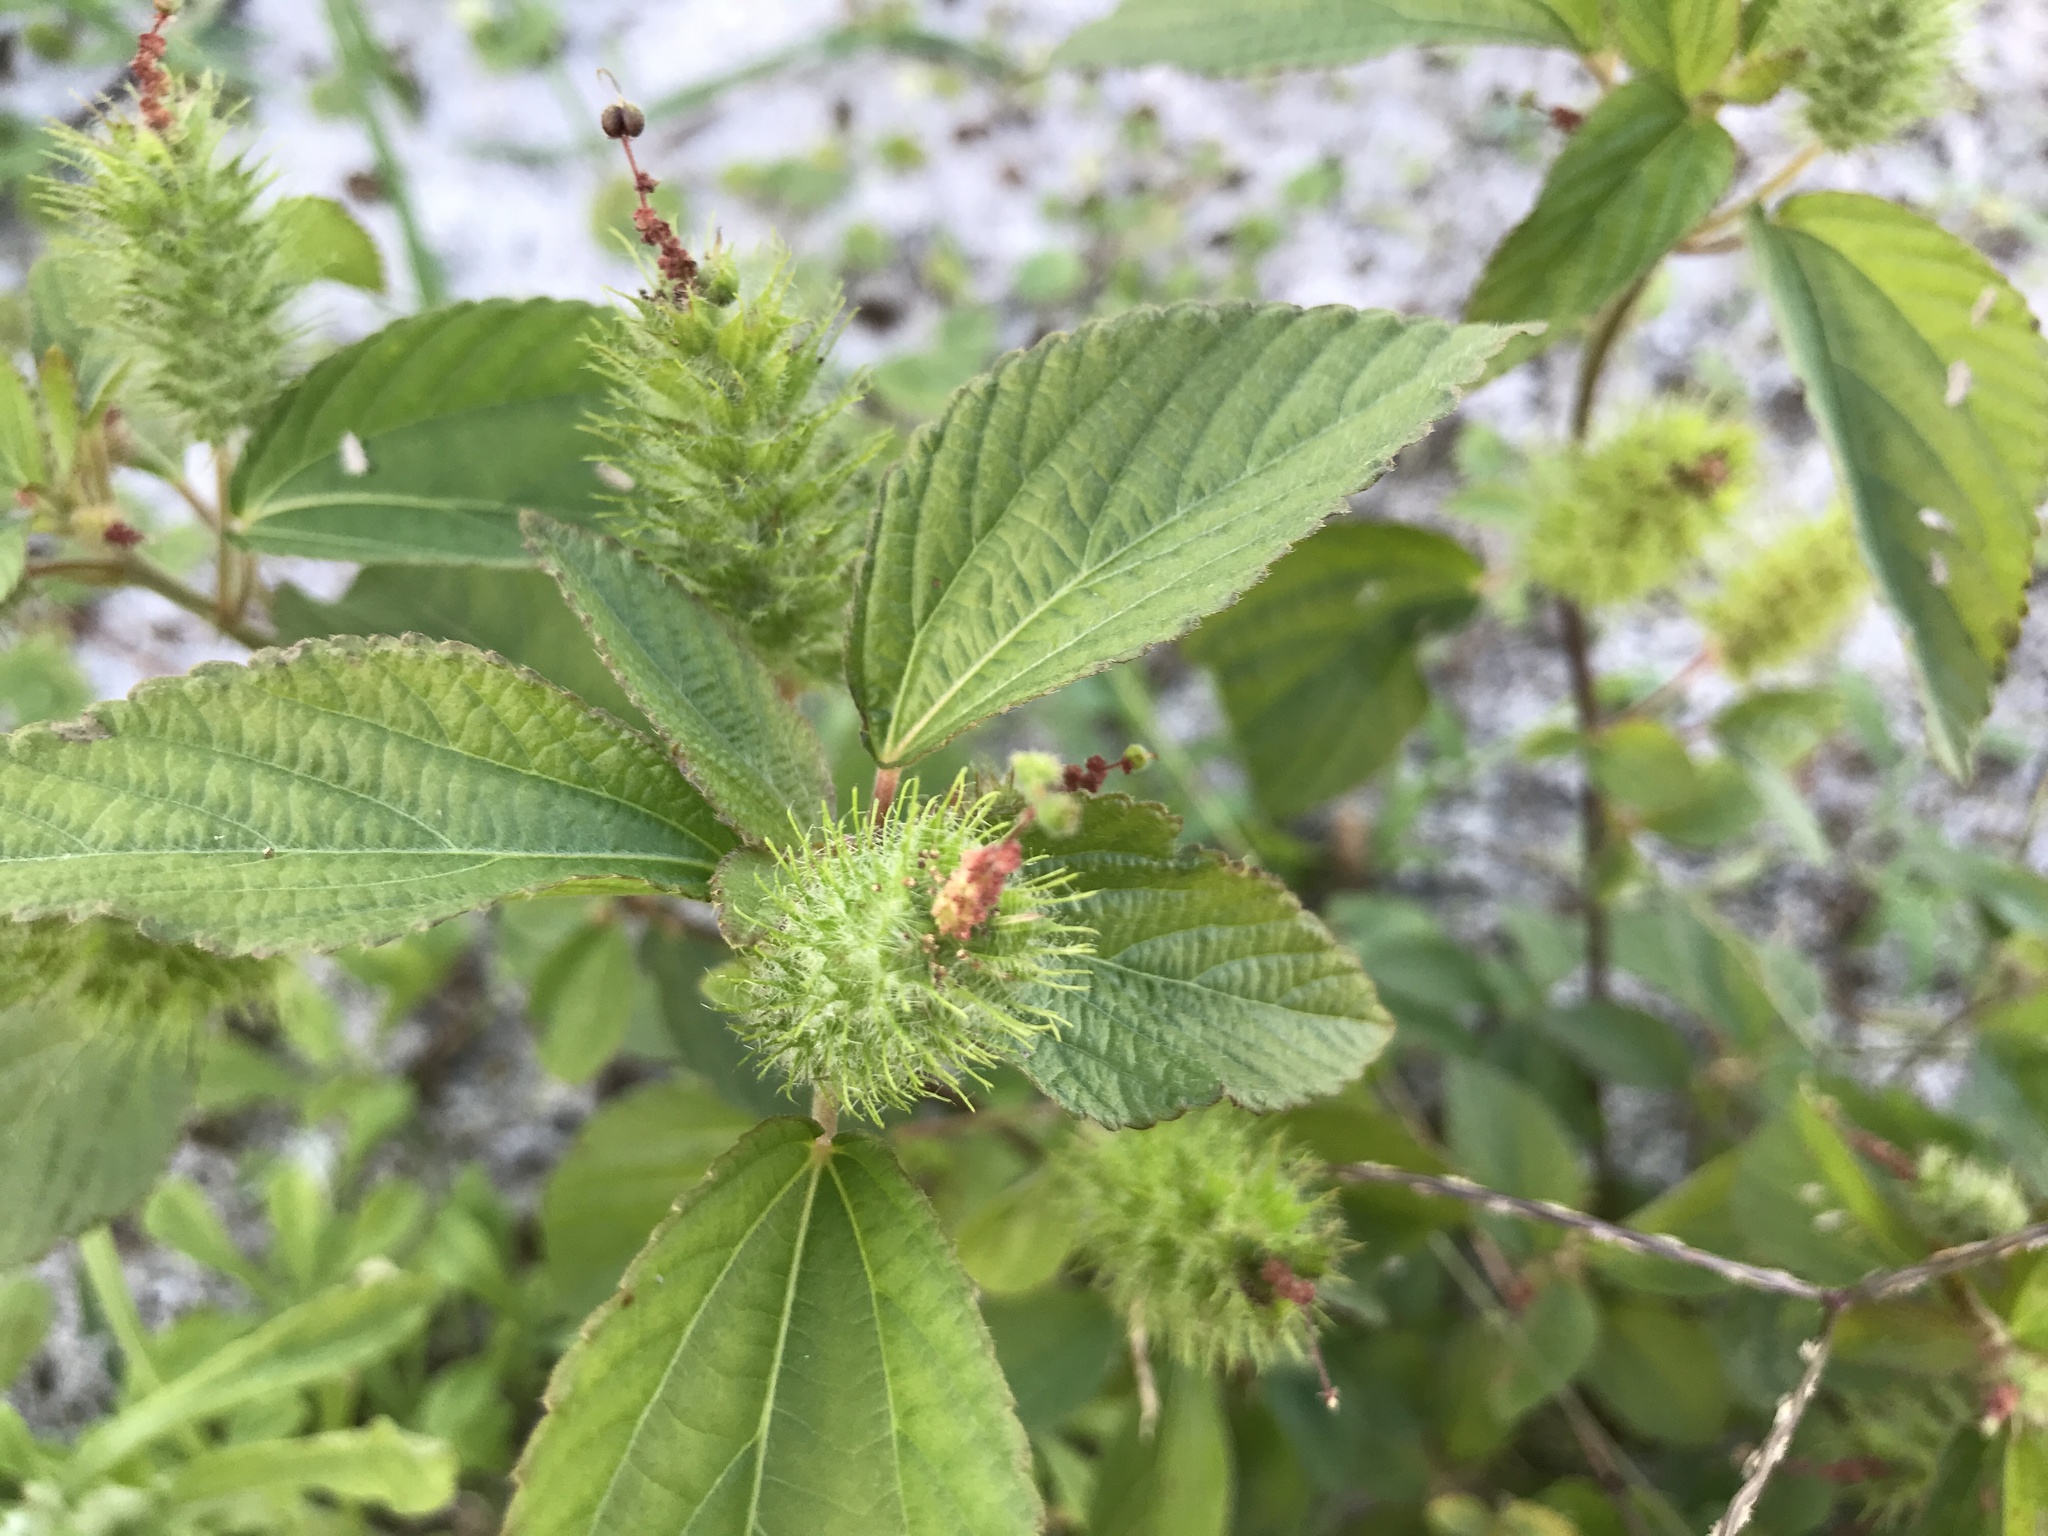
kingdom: Plantae
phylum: Tracheophyta
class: Magnoliopsida
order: Malpighiales
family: Euphorbiaceae
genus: Acalypha
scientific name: Acalypha arvensis
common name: Field copperleaf
